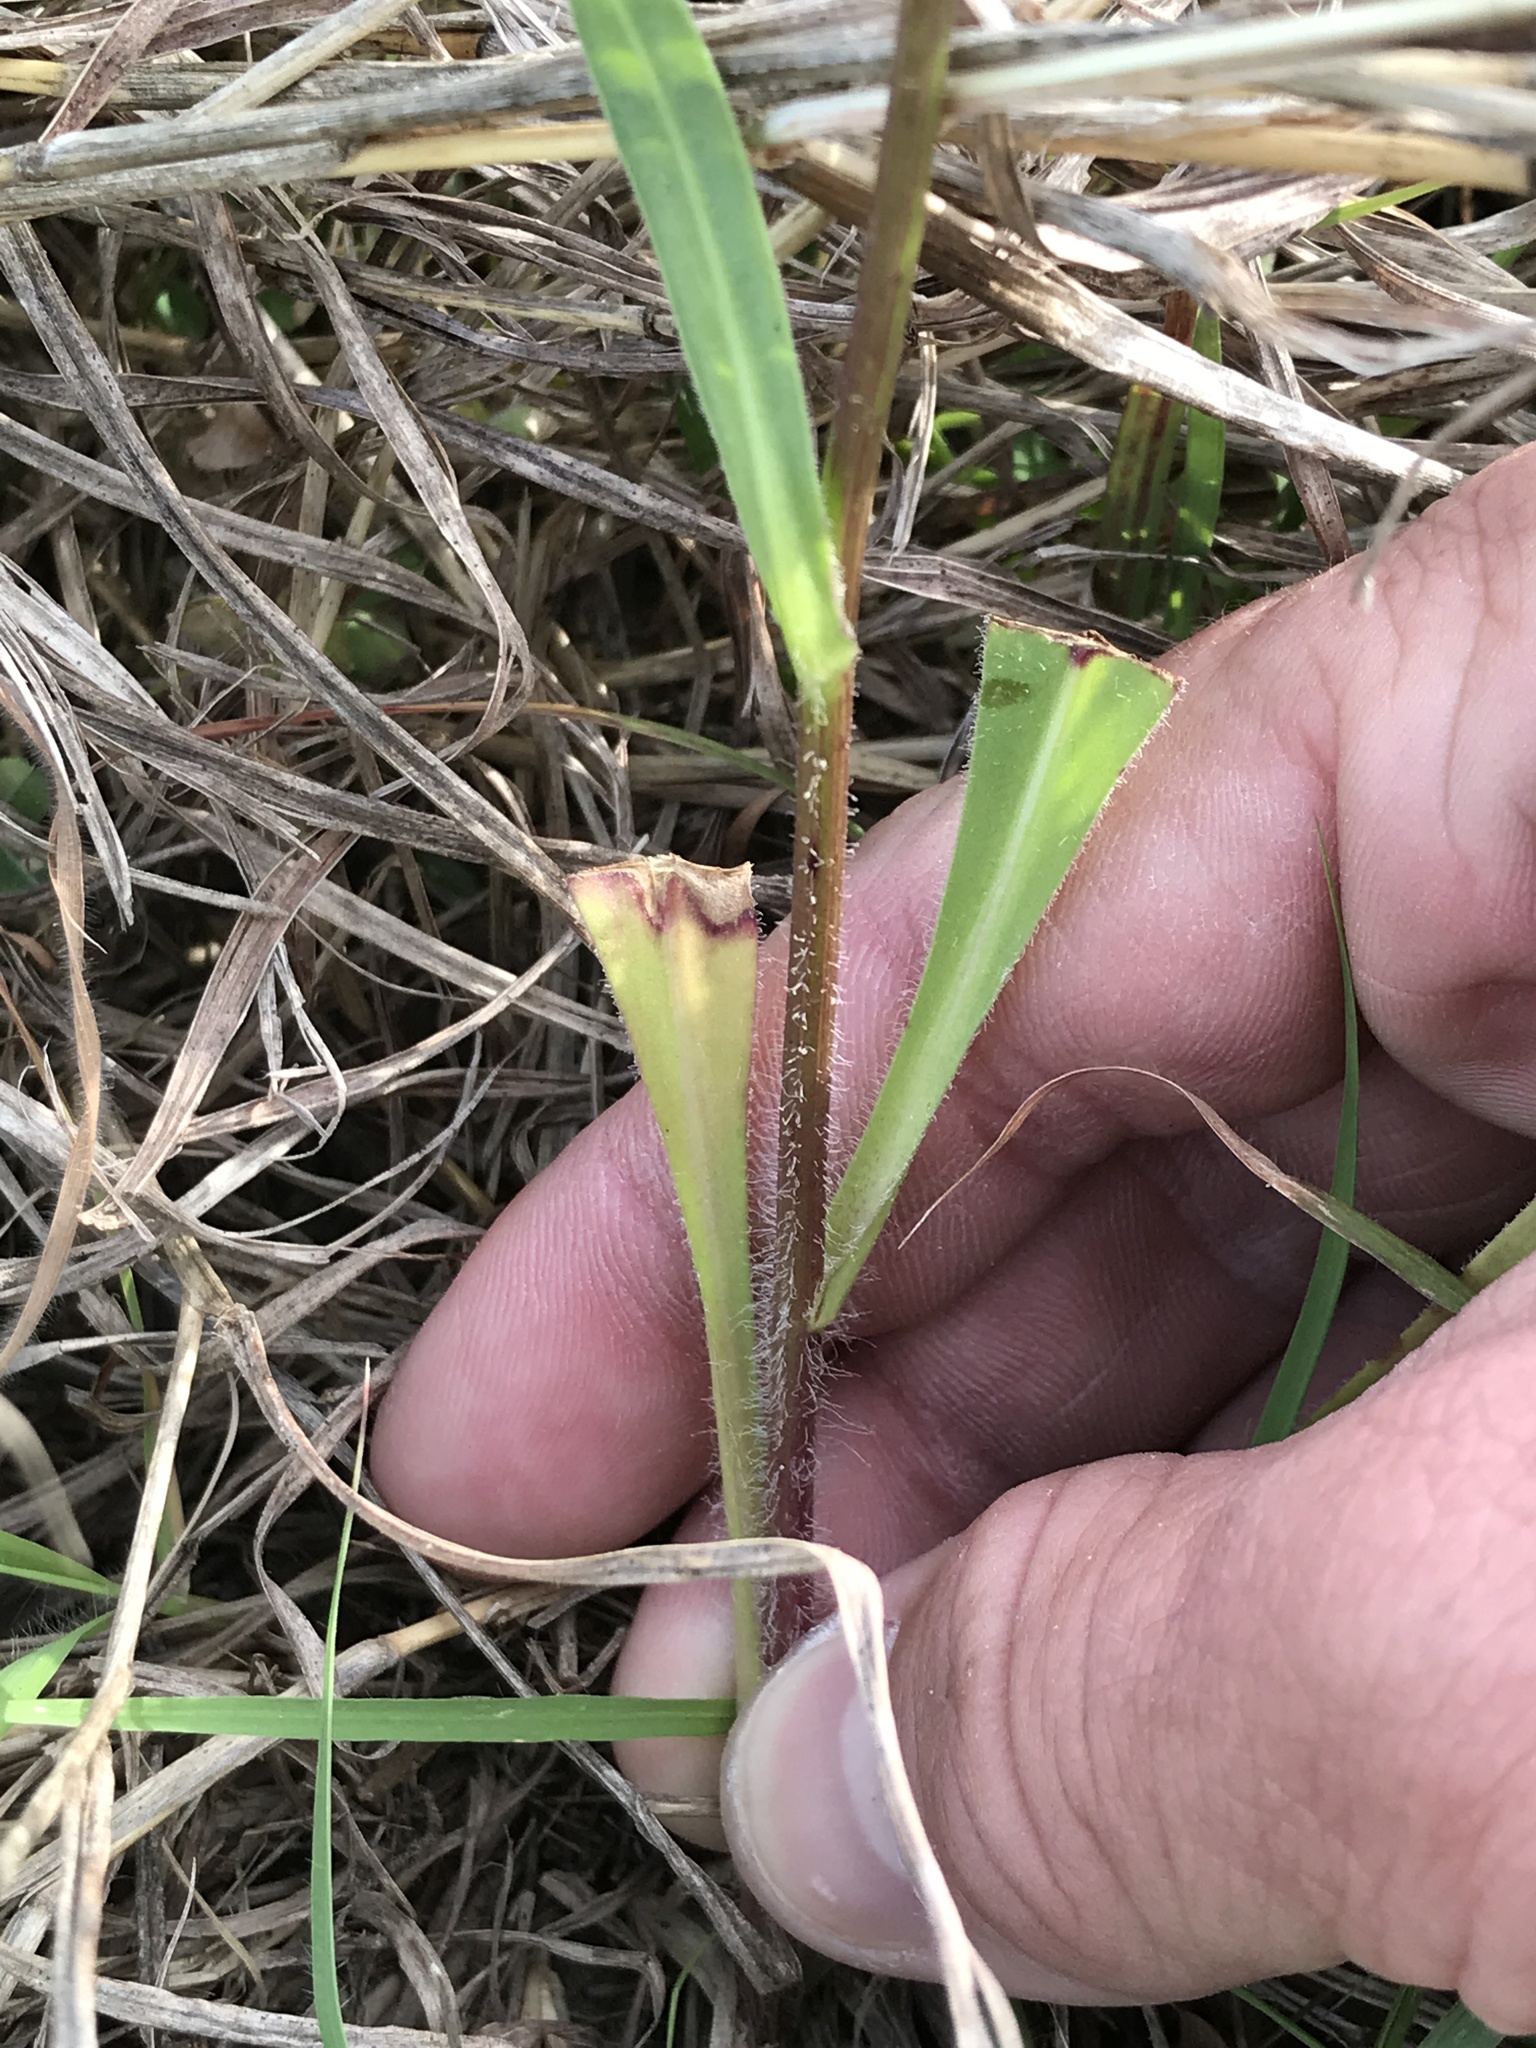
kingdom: Plantae
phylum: Tracheophyta
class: Magnoliopsida
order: Asterales
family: Asteraceae
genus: Pyrrhopappus
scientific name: Pyrrhopappus pauciflorus
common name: Texas false dandelion
